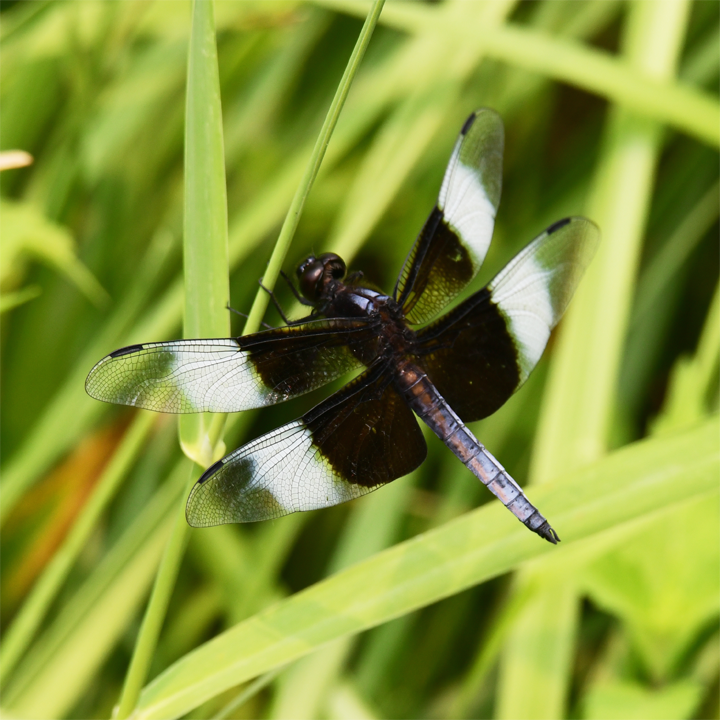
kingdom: Animalia
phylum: Arthropoda
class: Insecta
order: Odonata
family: Libellulidae
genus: Libellula
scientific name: Libellula luctuosa
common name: Widow skimmer
